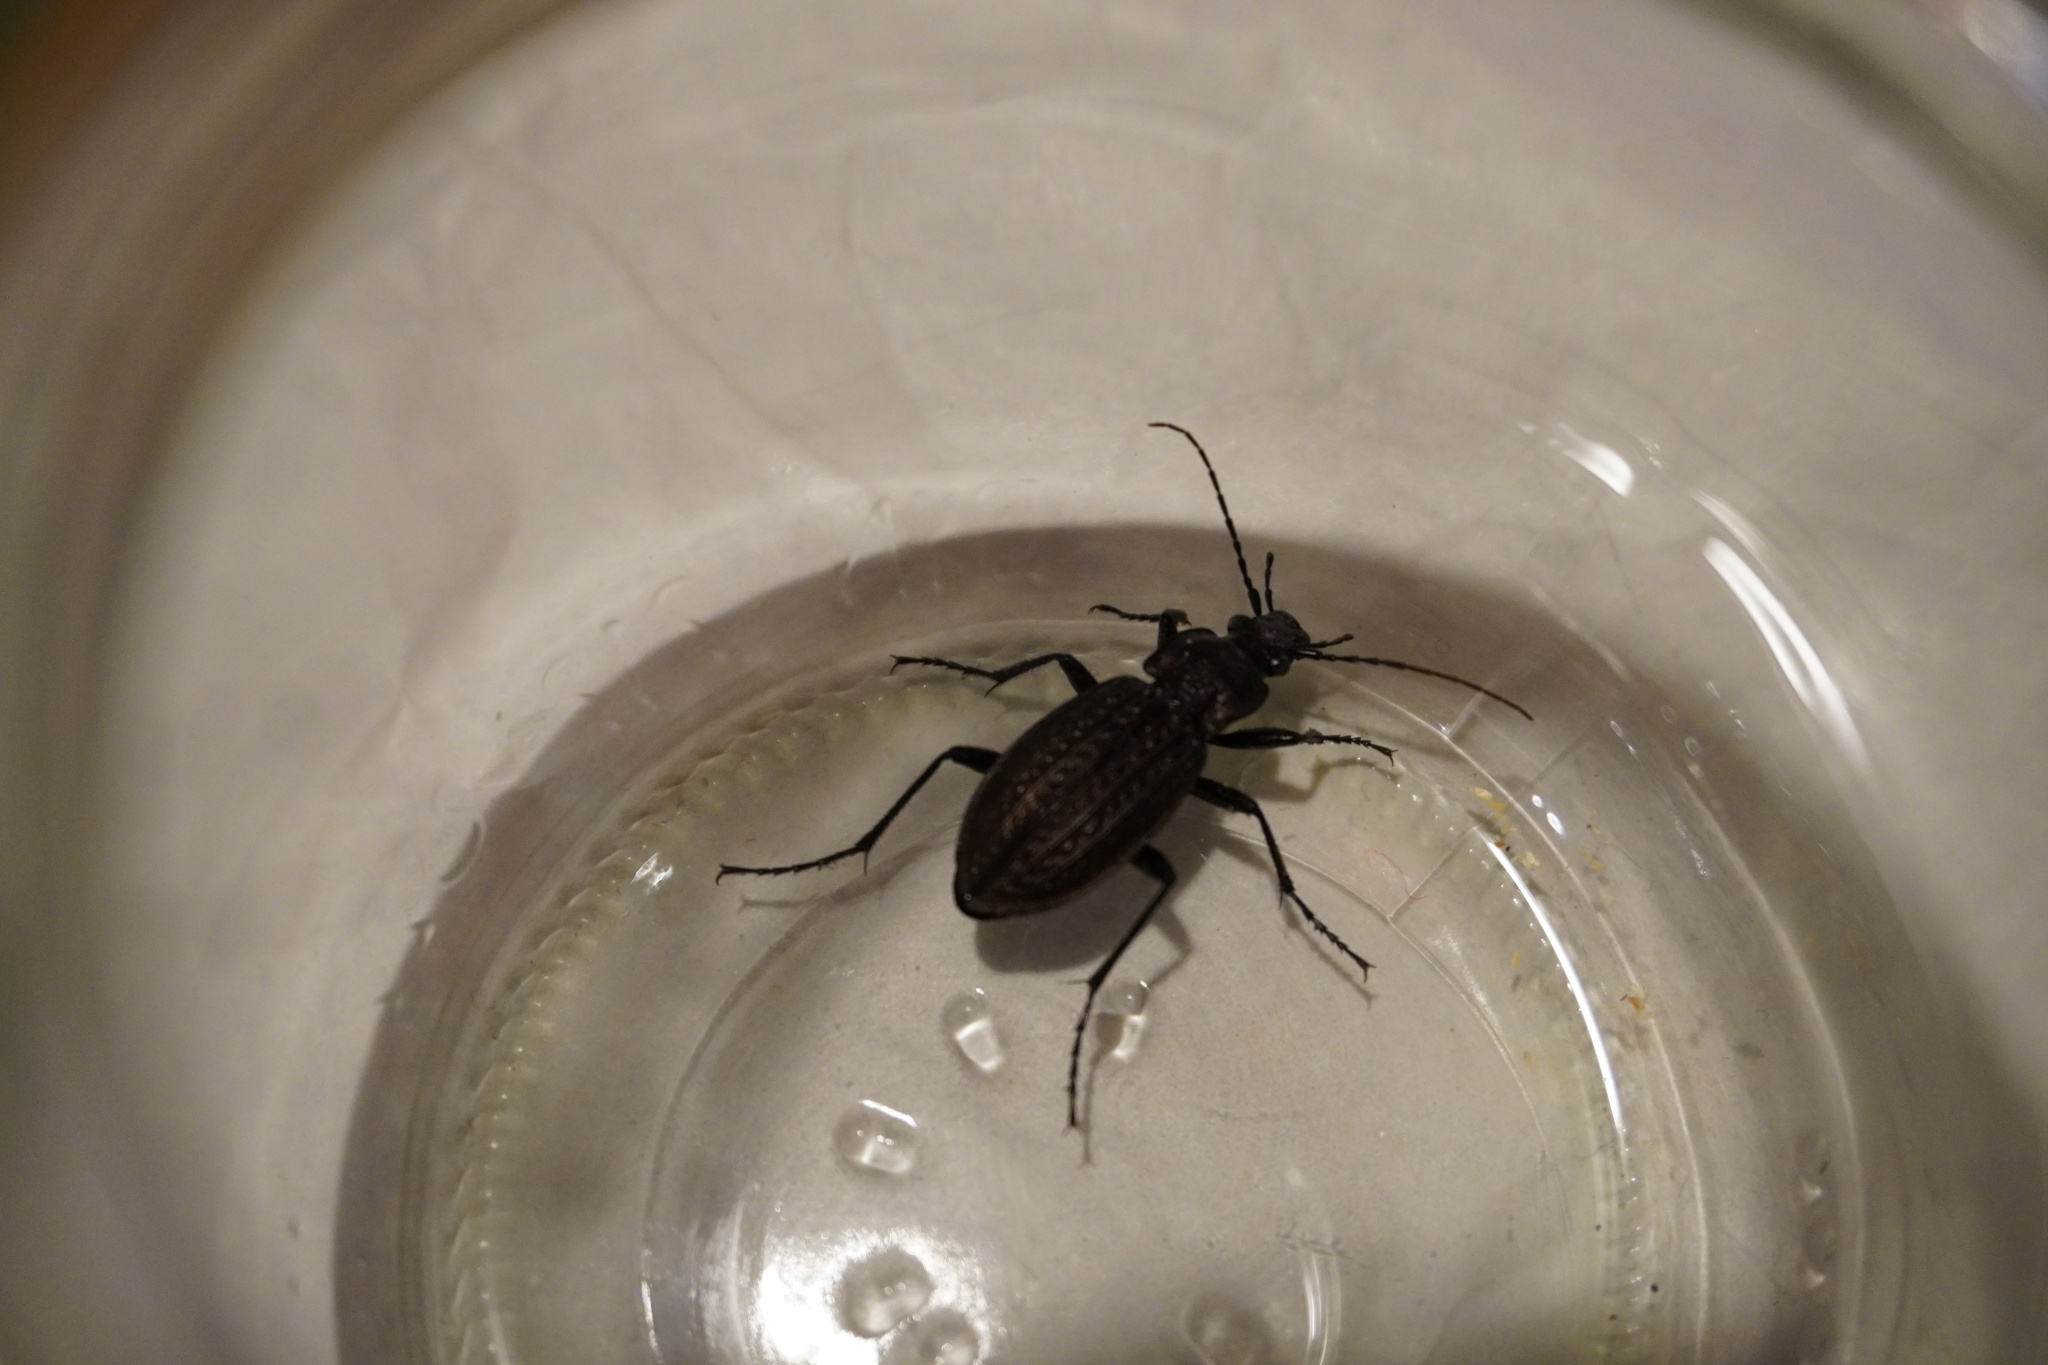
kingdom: Animalia
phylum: Arthropoda
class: Insecta
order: Coleoptera
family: Carabidae
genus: Carabus
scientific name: Carabus granulatus
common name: Granulate ground beetle
